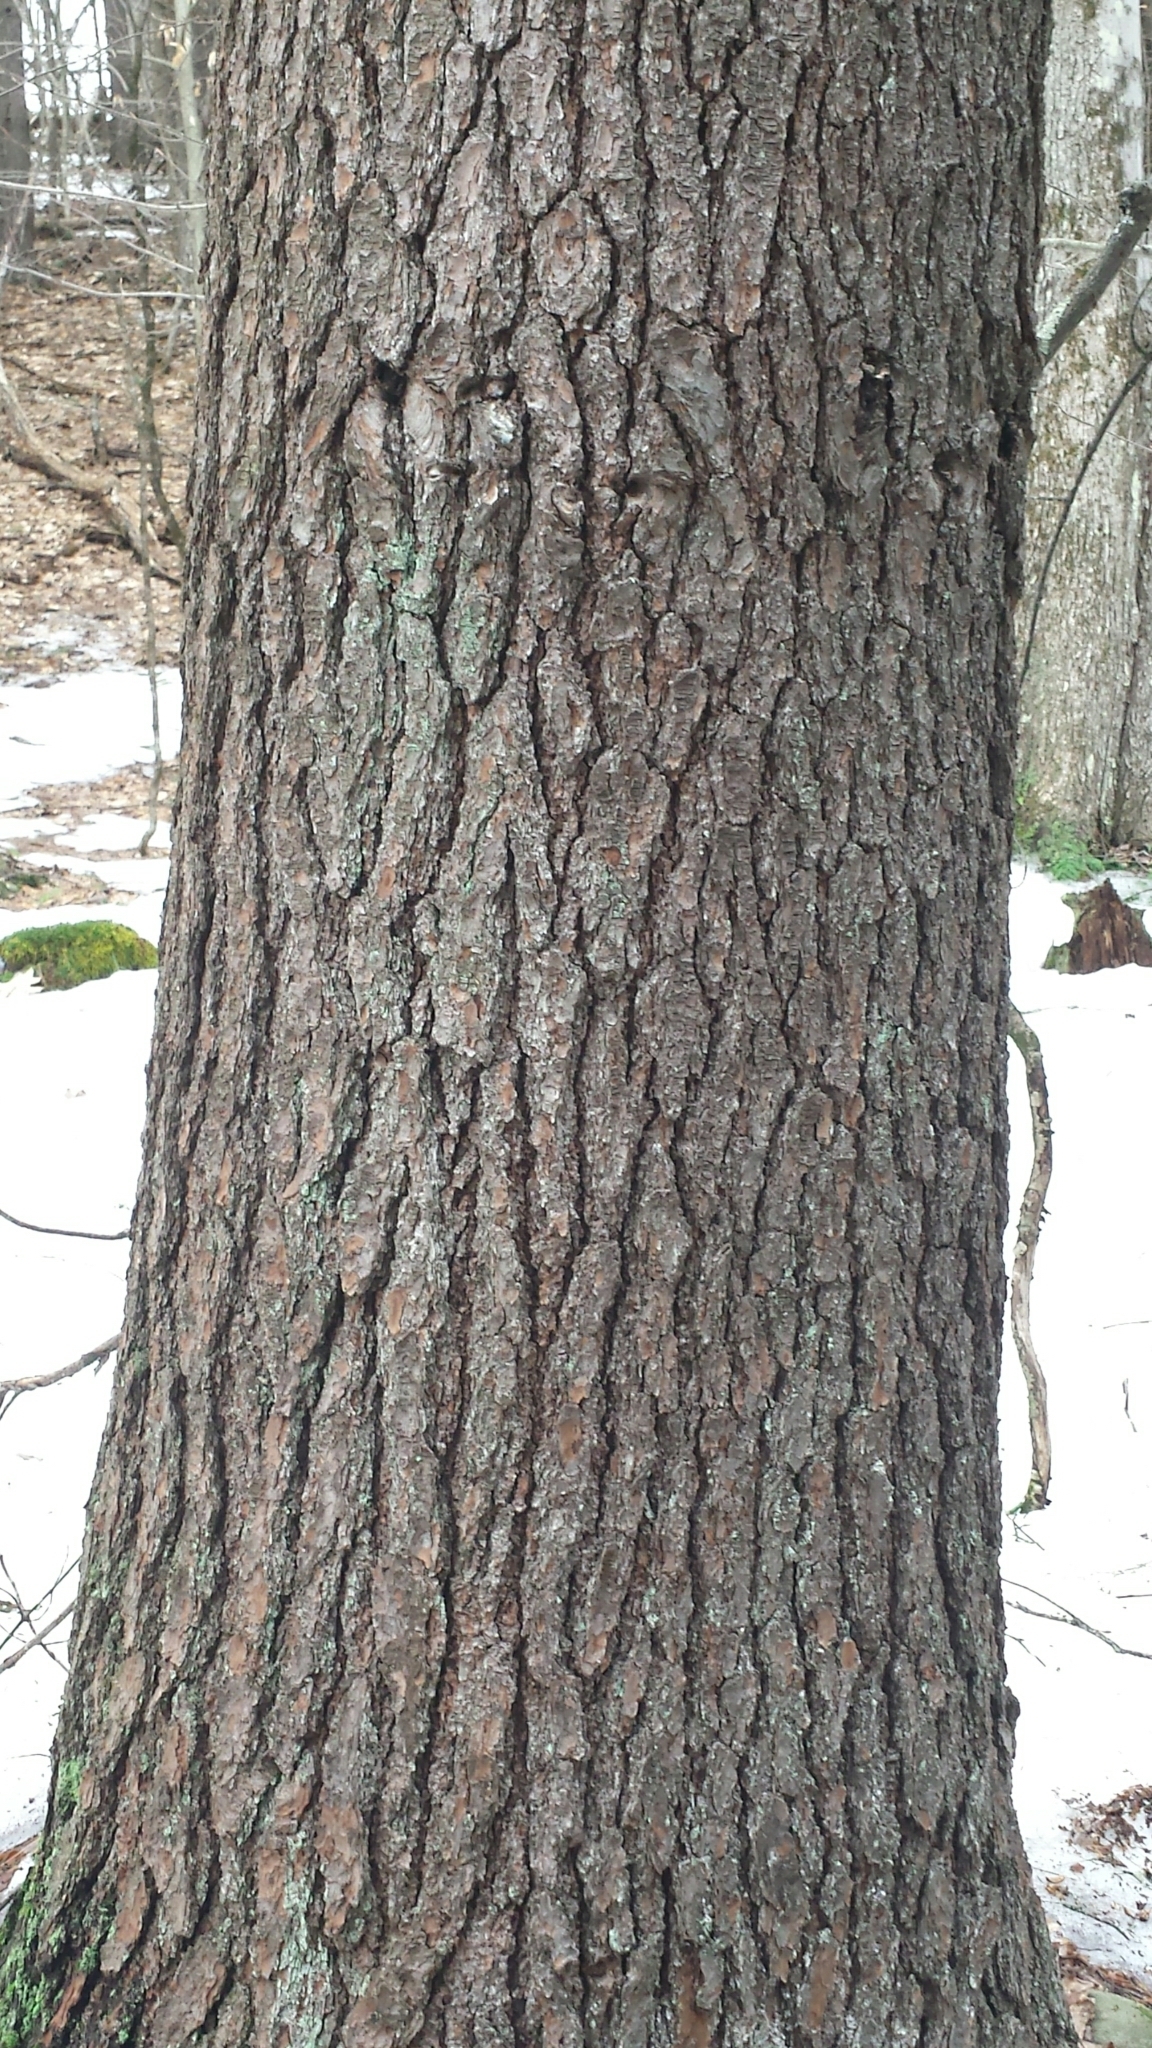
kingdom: Plantae
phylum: Tracheophyta
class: Pinopsida
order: Pinales
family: Pinaceae
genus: Pinus
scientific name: Pinus strobus
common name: Weymouth pine
